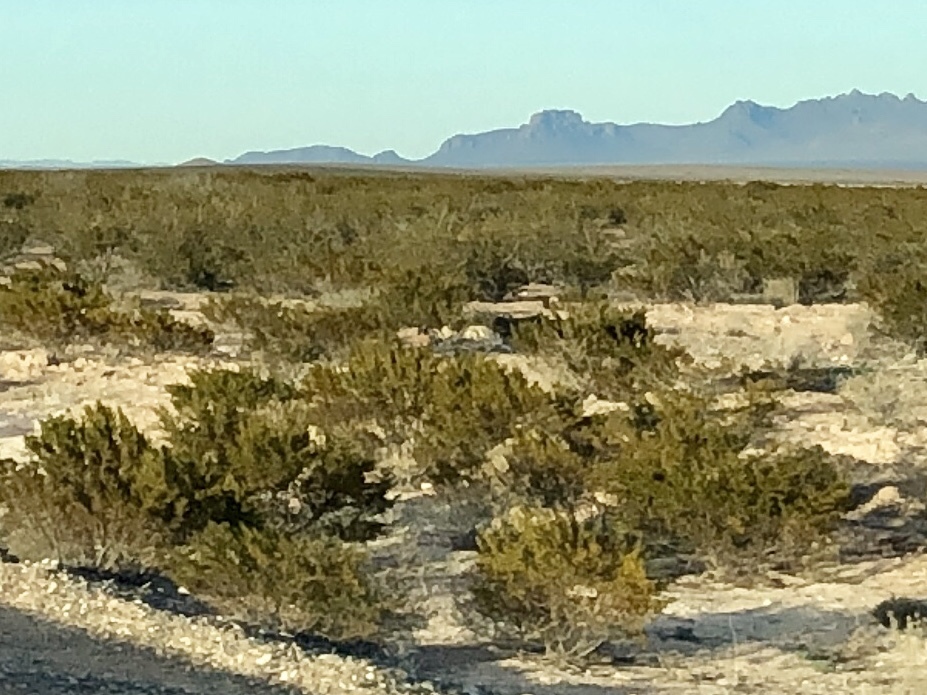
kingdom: Plantae
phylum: Tracheophyta
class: Magnoliopsida
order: Zygophyllales
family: Zygophyllaceae
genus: Larrea
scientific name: Larrea tridentata
